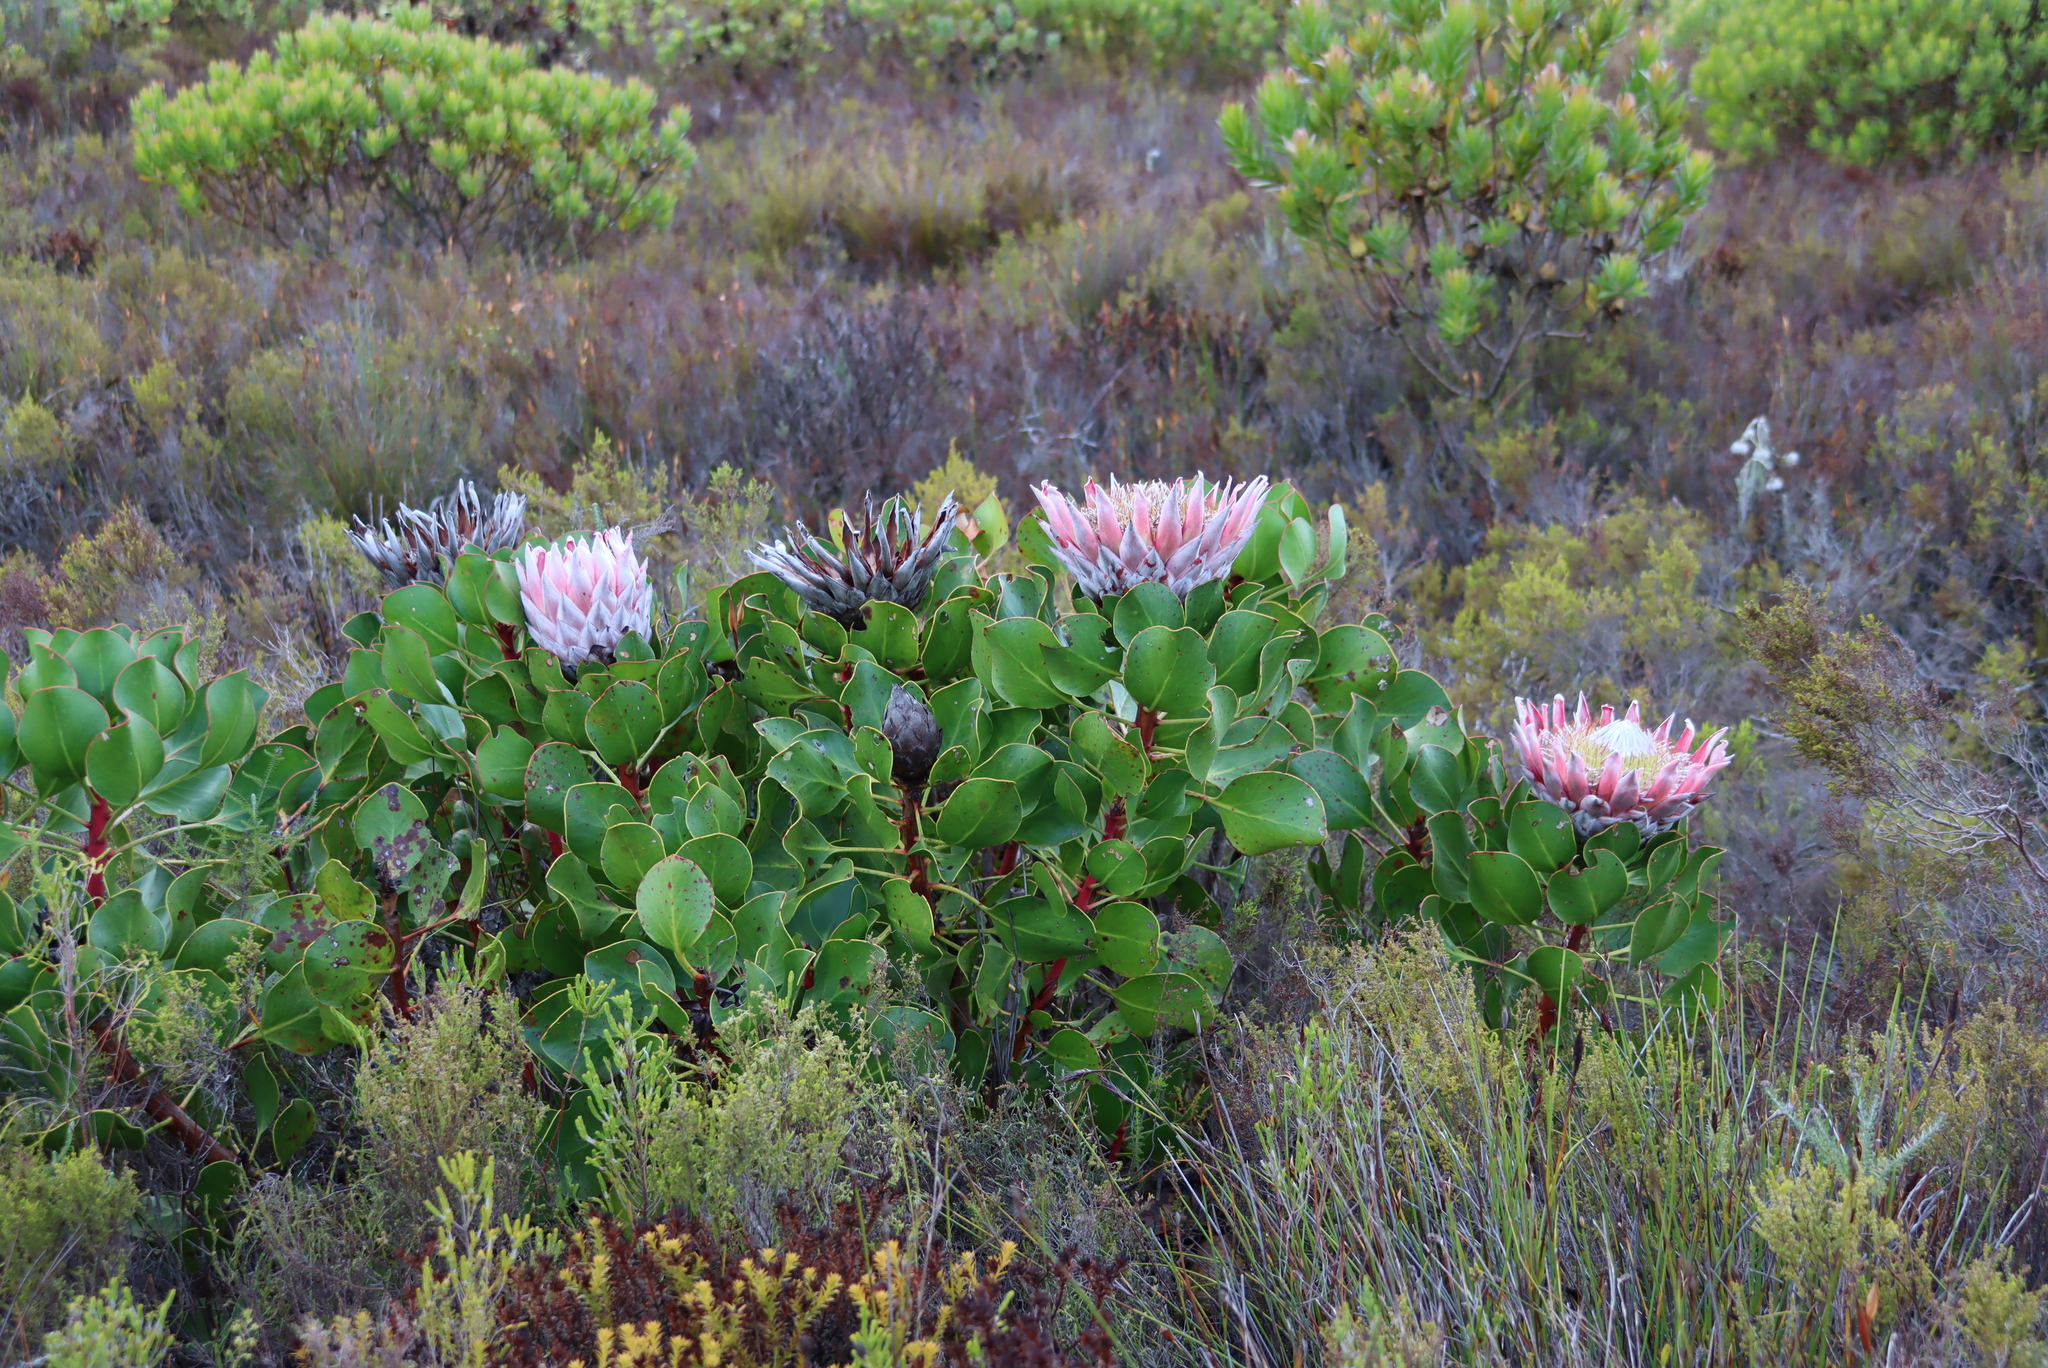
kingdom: Plantae
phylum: Tracheophyta
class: Magnoliopsida
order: Proteales
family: Proteaceae
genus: Protea
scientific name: Protea cynaroides
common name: King protea
